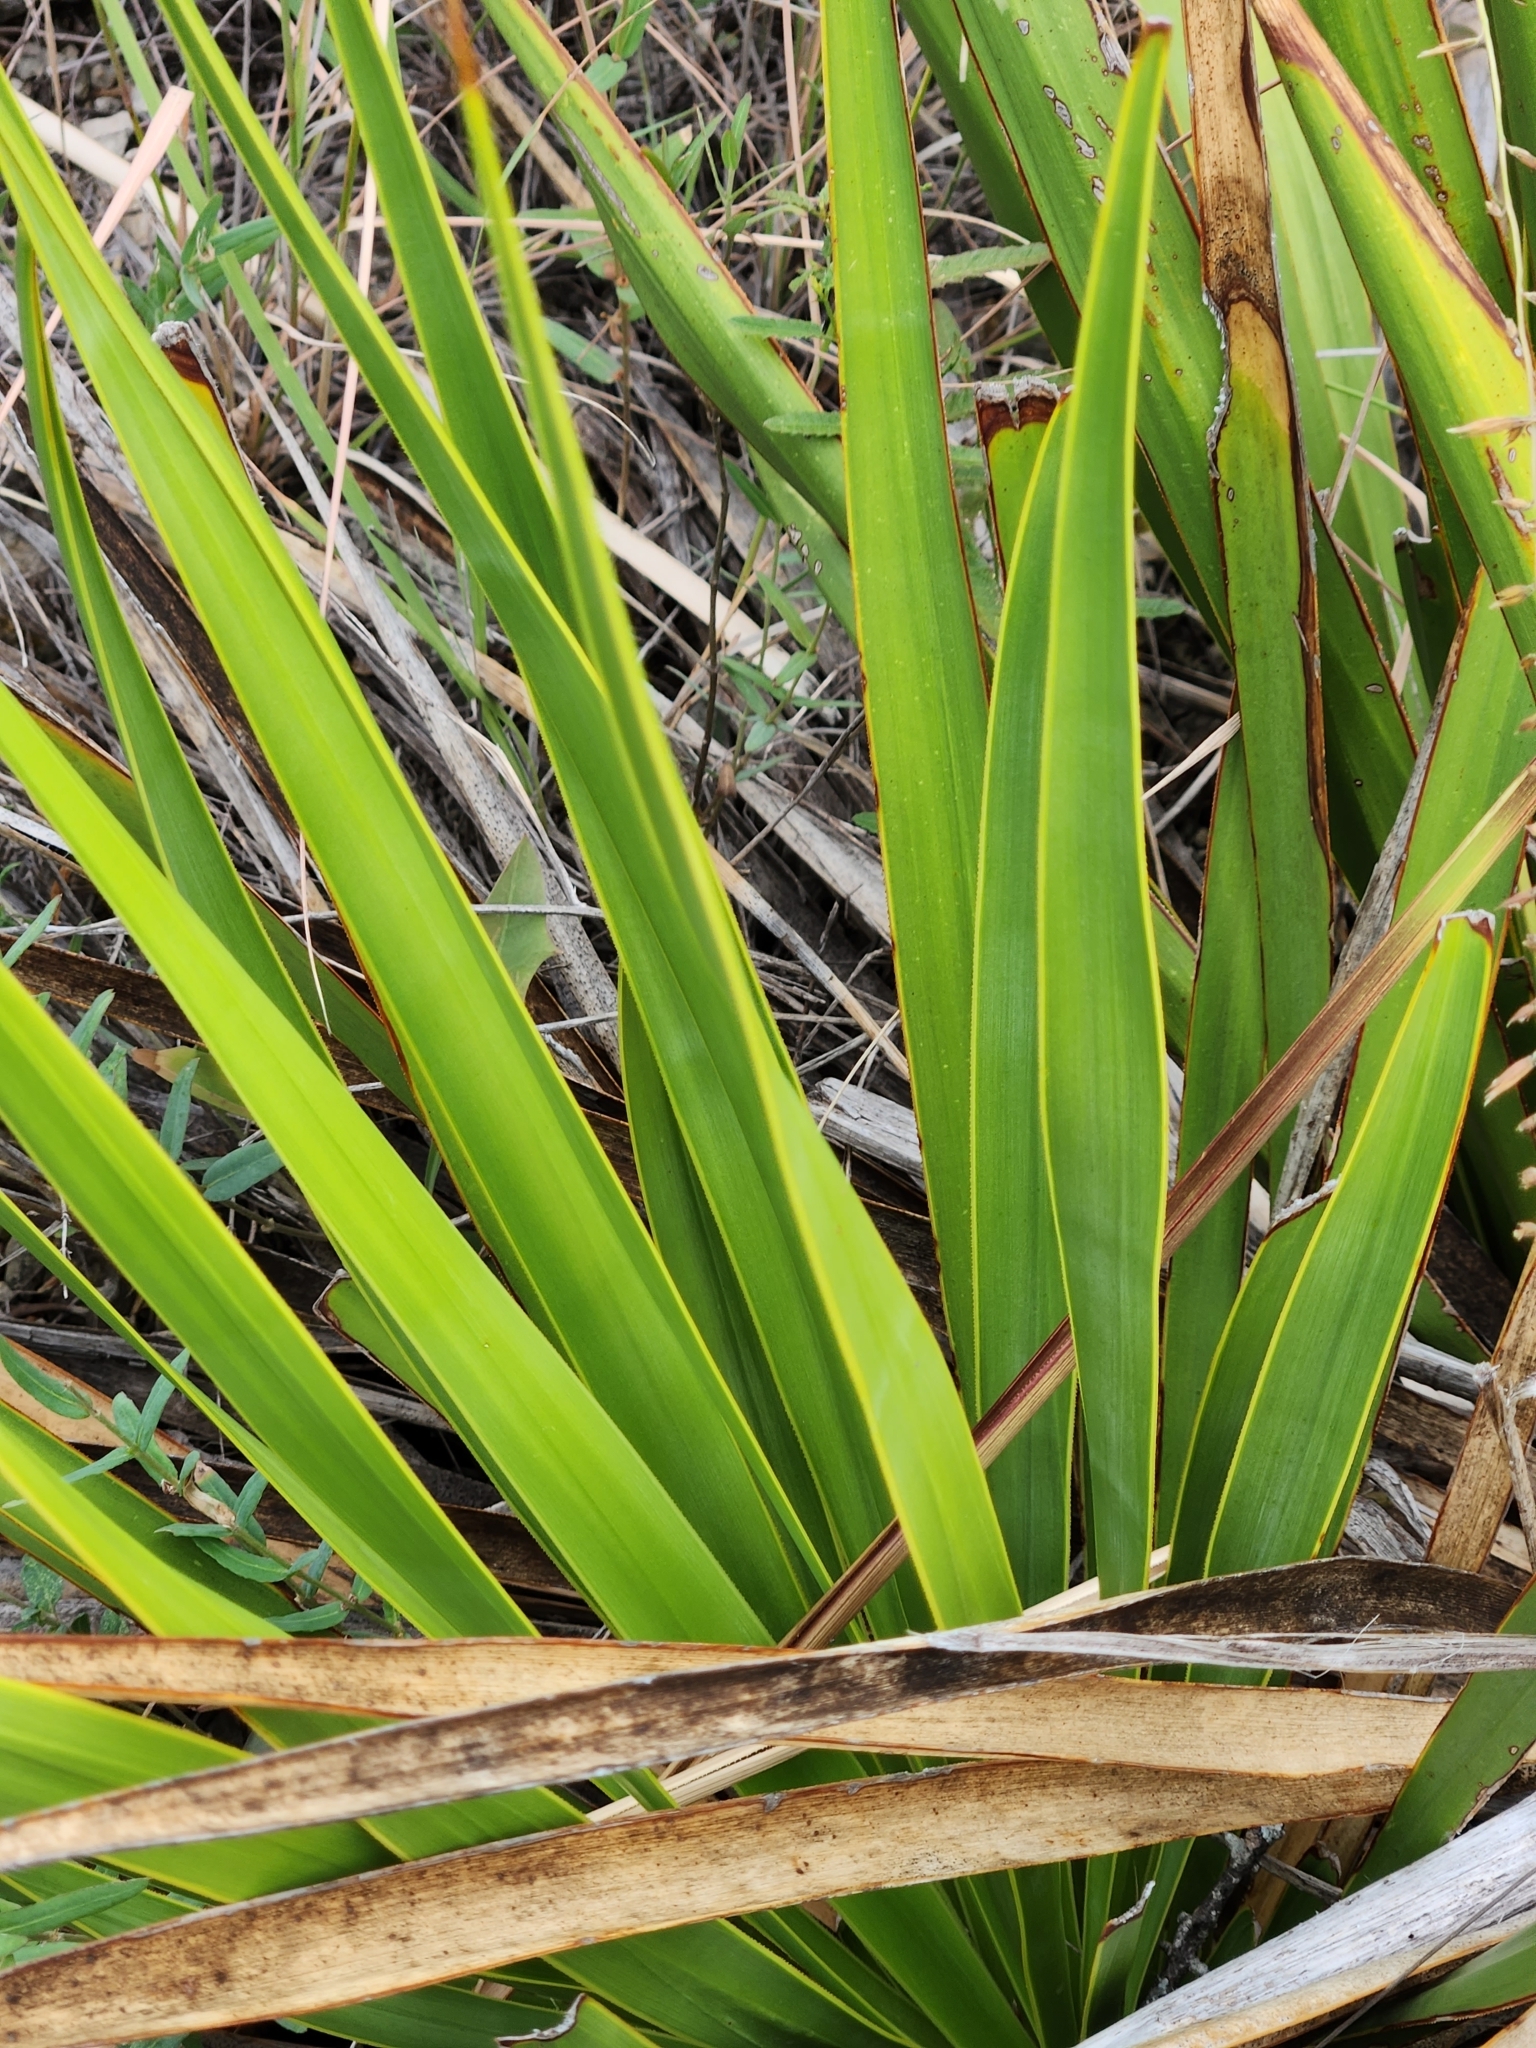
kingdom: Plantae
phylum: Tracheophyta
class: Liliopsida
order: Asparagales
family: Asparagaceae
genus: Yucca
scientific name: Yucca rupicola
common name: Twisted-leaf spanish-dagger
